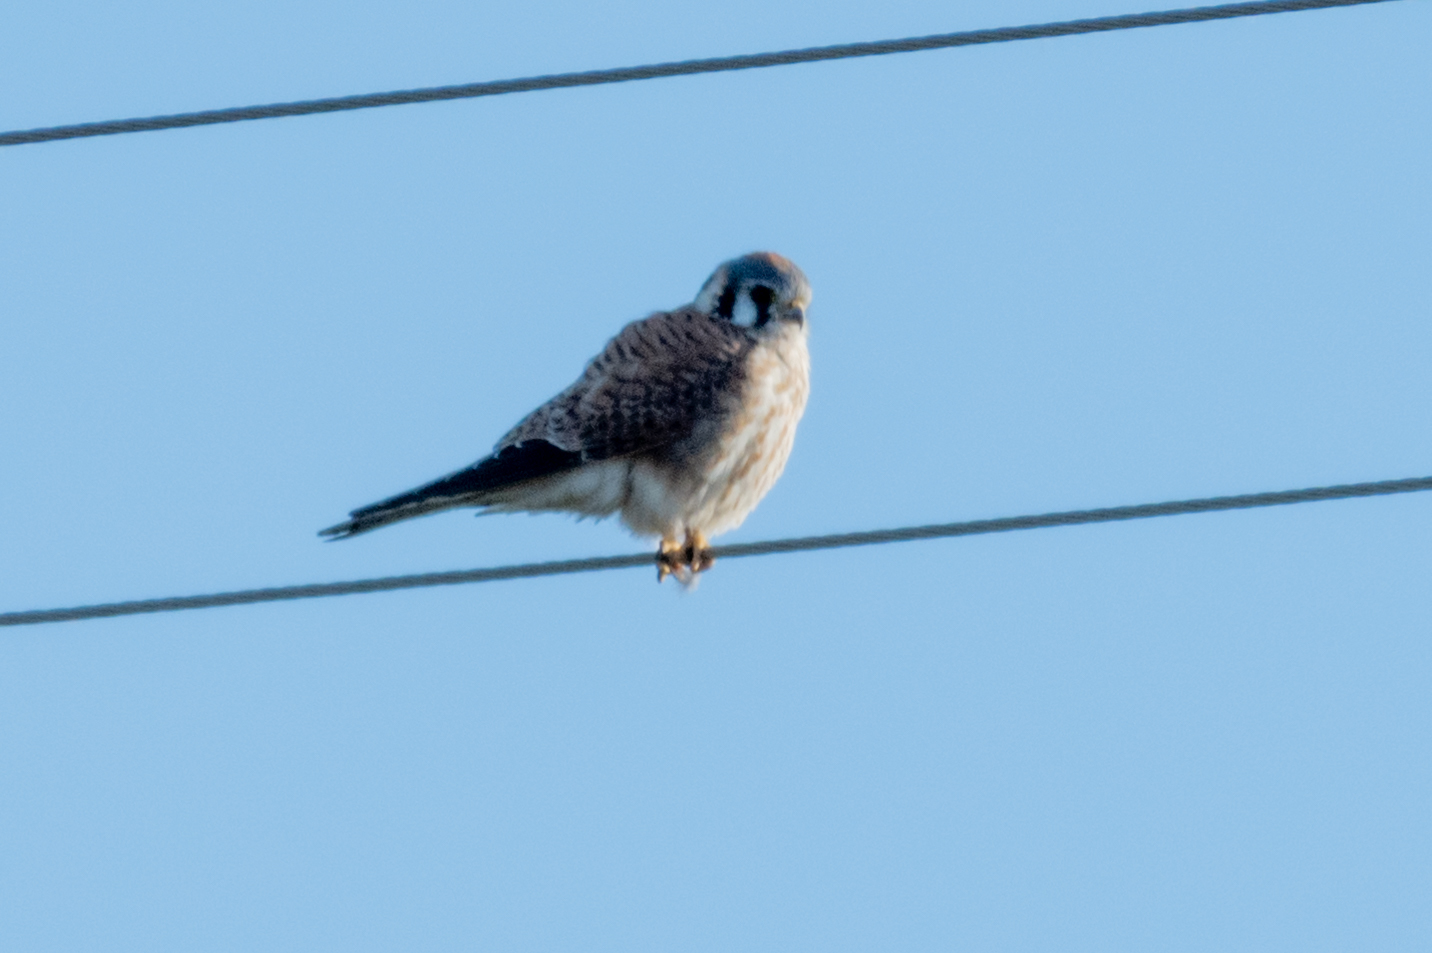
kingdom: Animalia
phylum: Chordata
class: Aves
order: Falconiformes
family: Falconidae
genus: Falco
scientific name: Falco sparverius
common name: American kestrel
